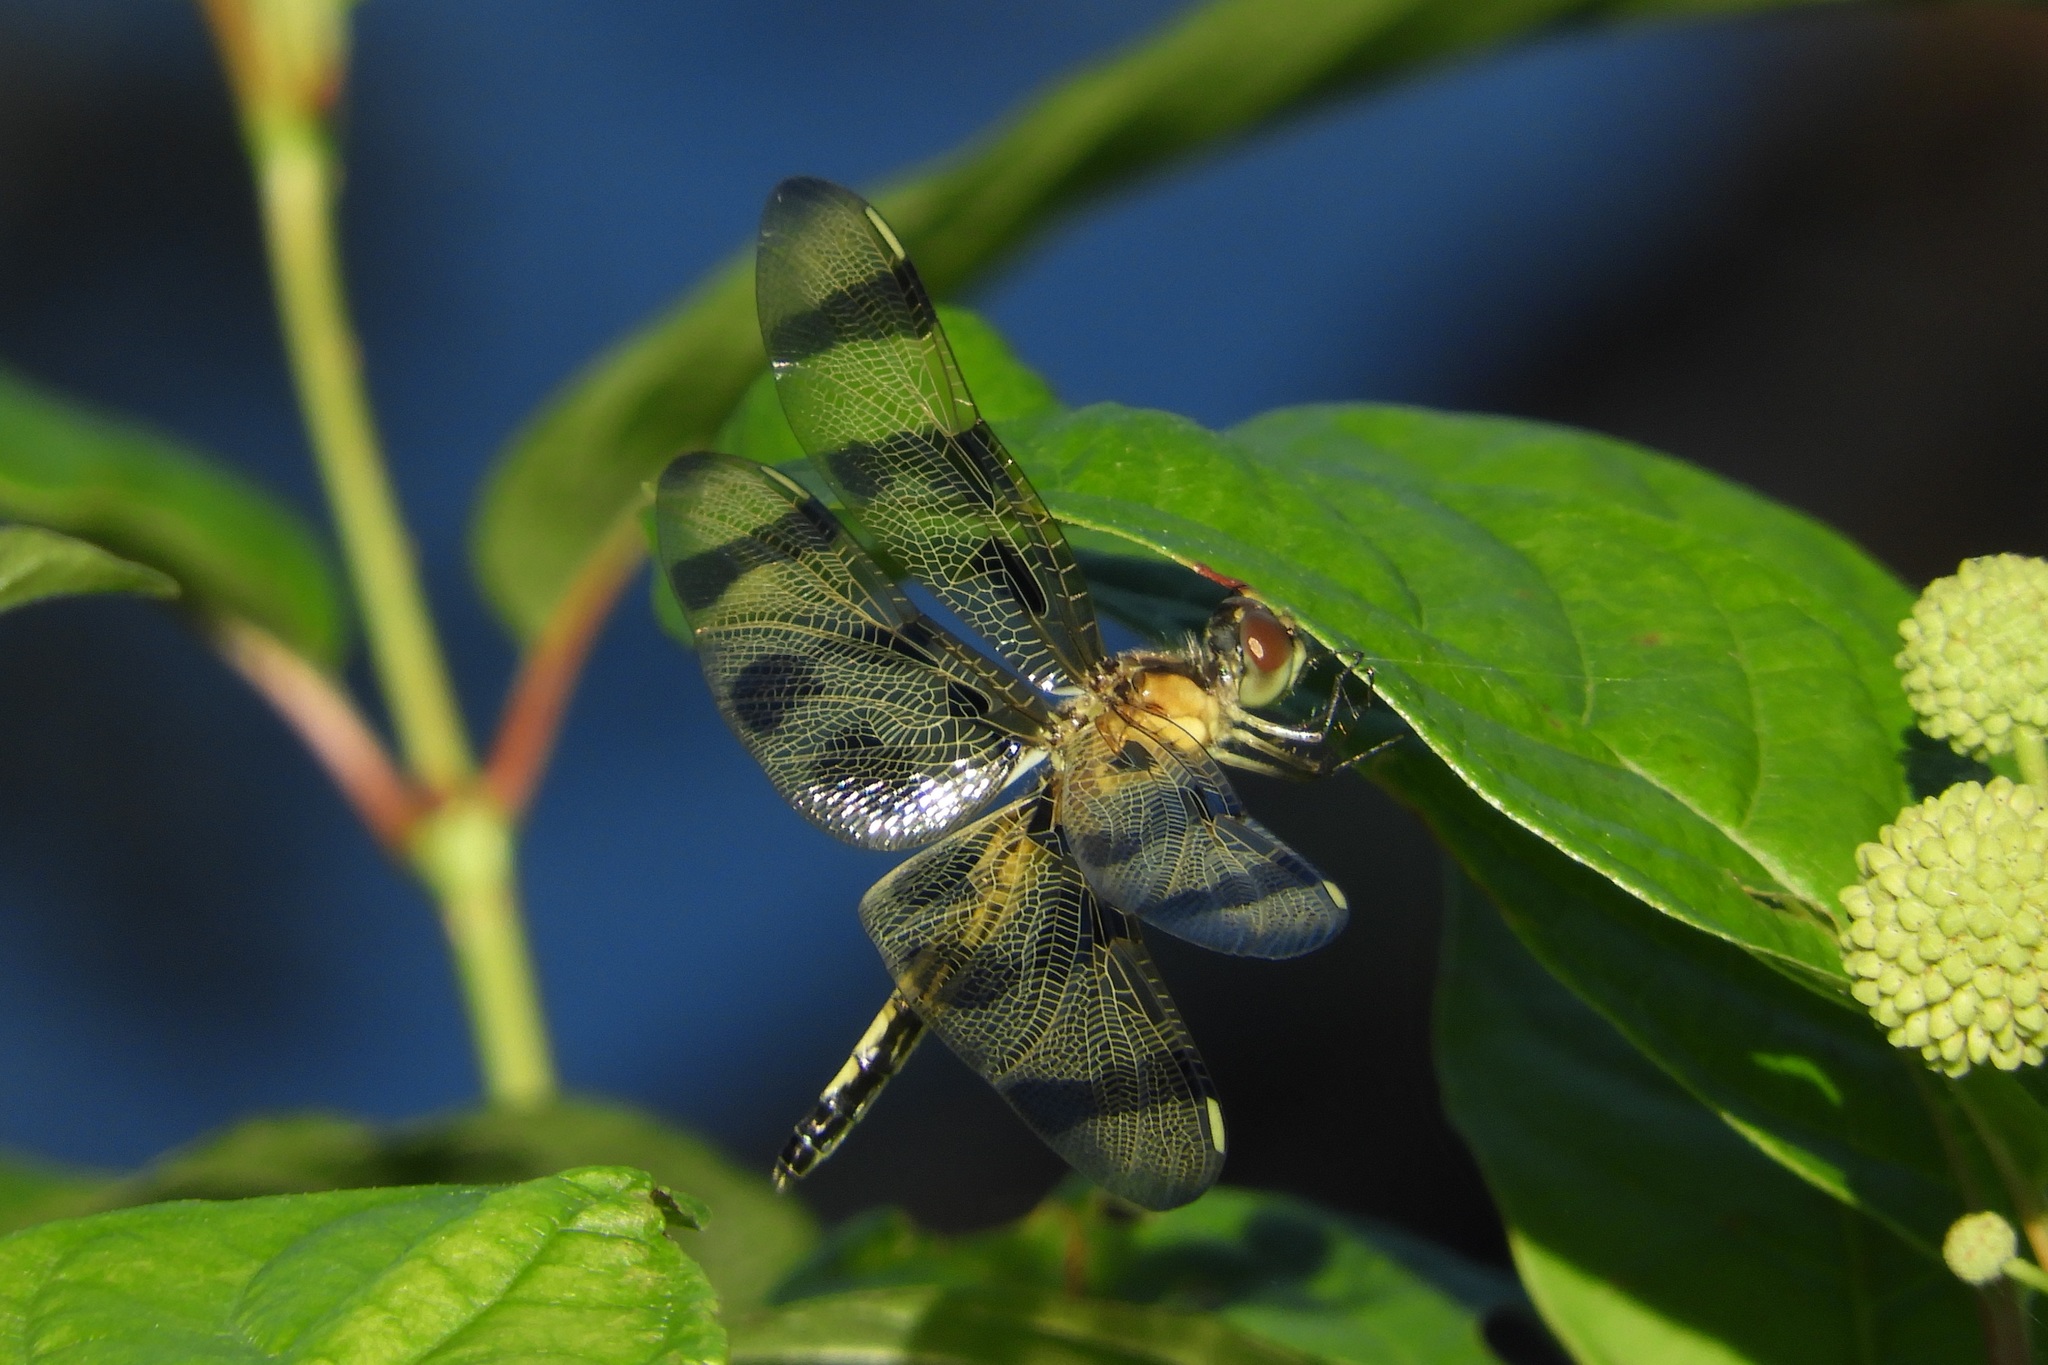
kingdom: Animalia
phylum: Arthropoda
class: Insecta
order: Odonata
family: Libellulidae
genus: Celithemis
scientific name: Celithemis eponina
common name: Halloween pennant
